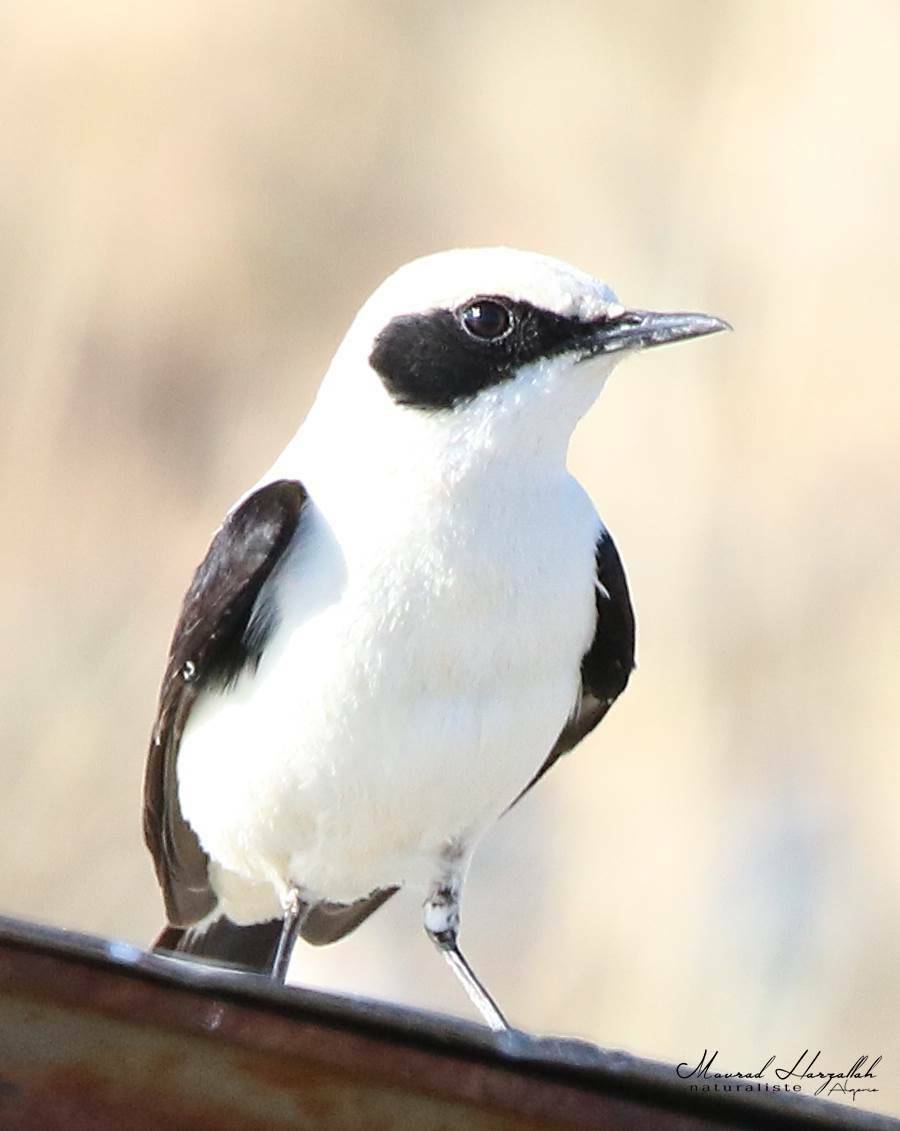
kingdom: Animalia
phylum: Chordata
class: Aves
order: Passeriformes
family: Muscicapidae
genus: Oenanthe
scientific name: Oenanthe hispanica
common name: Black-eared wheatear
